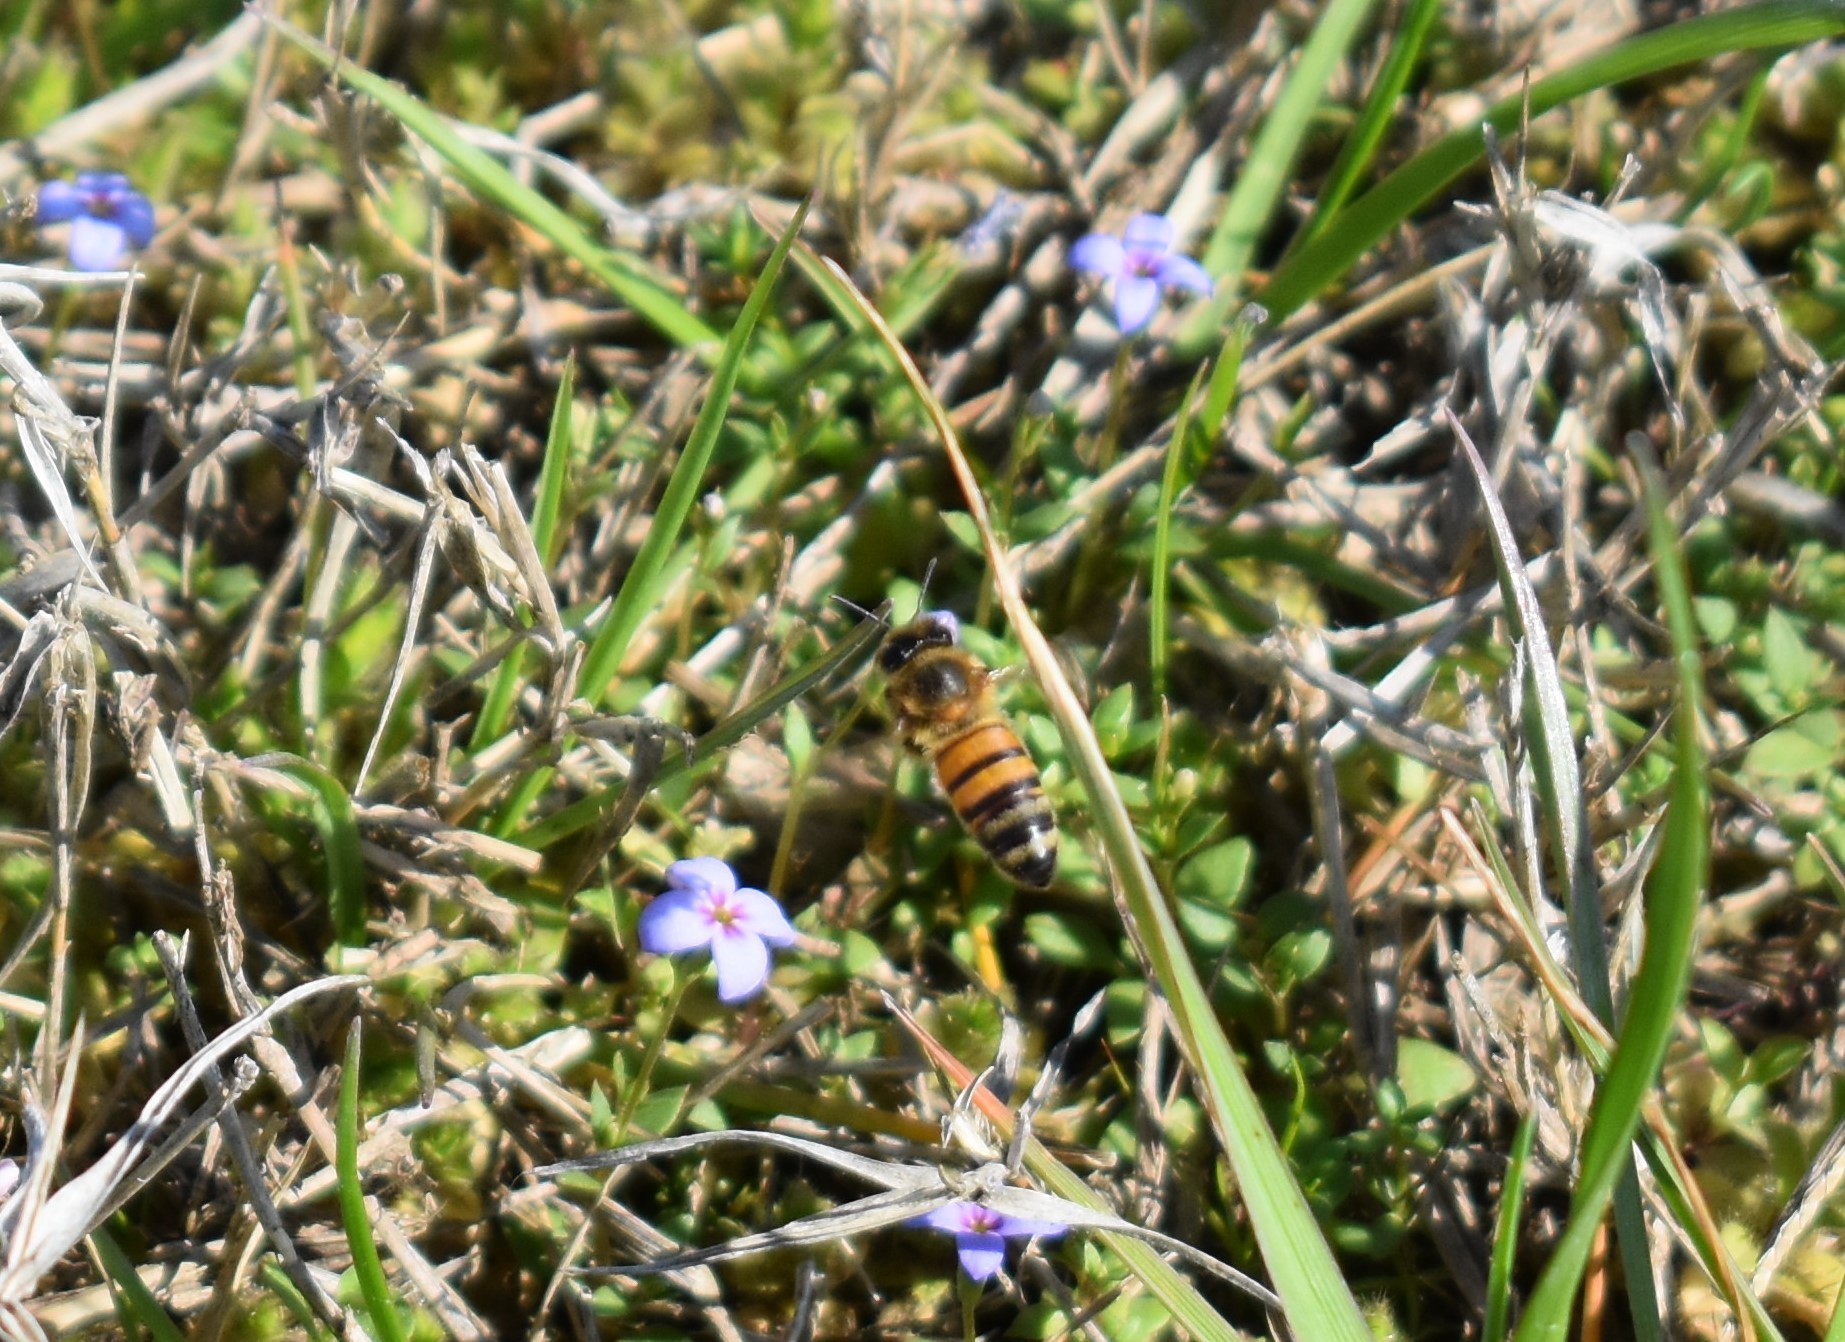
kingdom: Animalia
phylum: Arthropoda
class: Insecta
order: Hymenoptera
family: Apidae
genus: Apis
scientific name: Apis mellifera
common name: Honey bee
